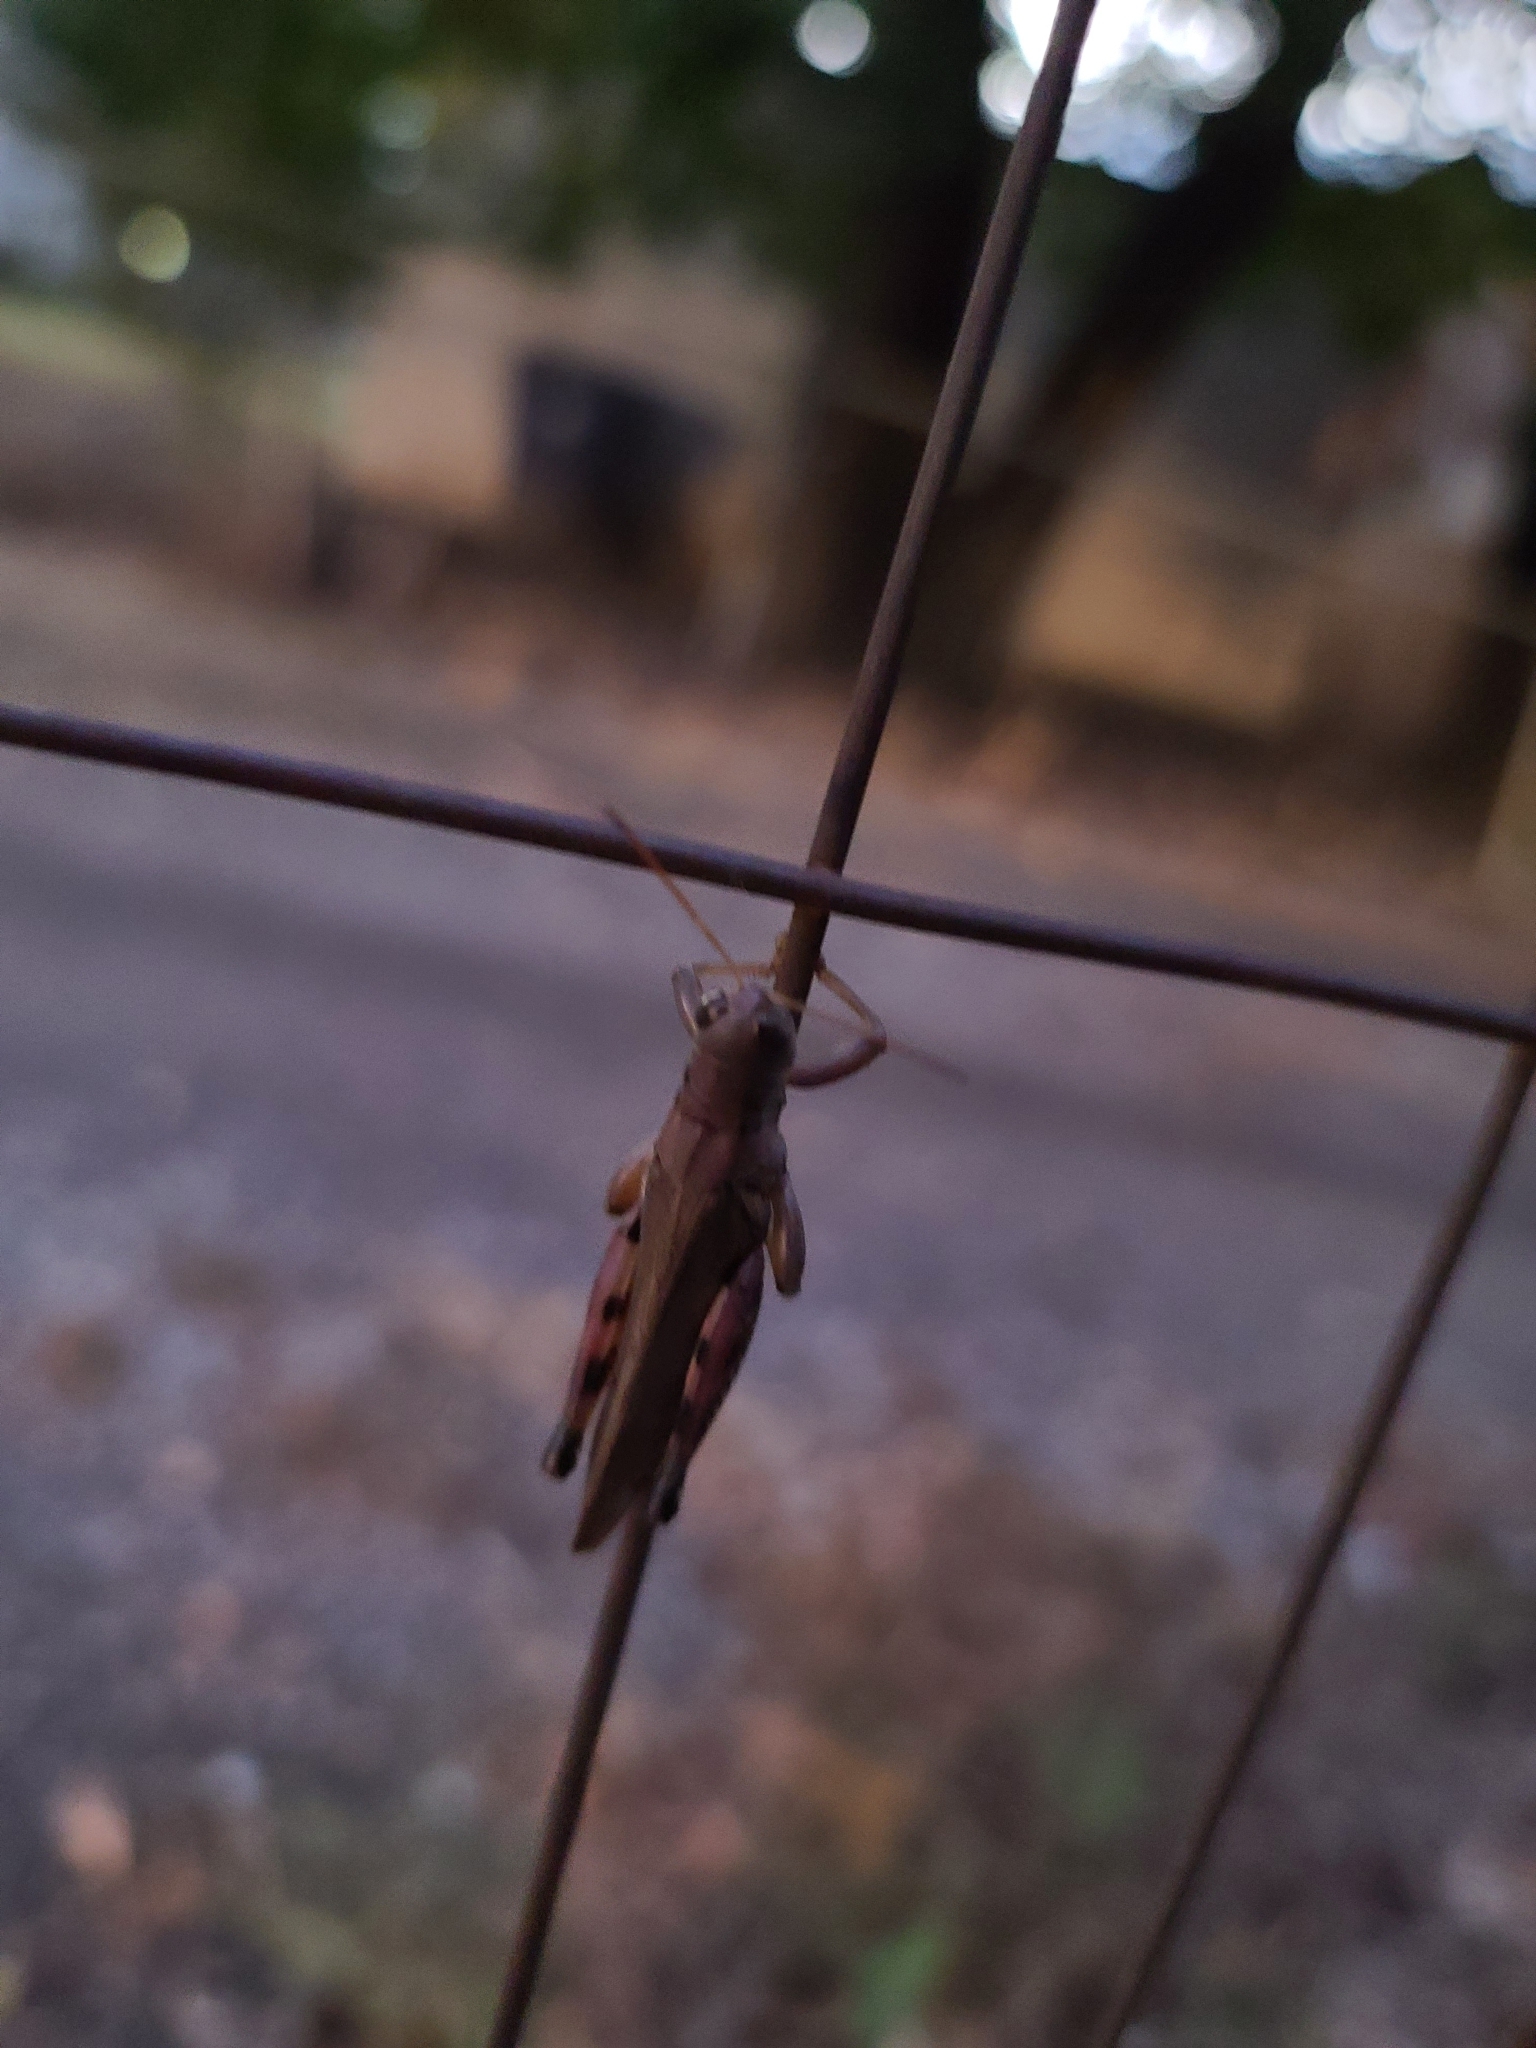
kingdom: Animalia
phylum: Arthropoda
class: Insecta
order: Orthoptera
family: Acrididae
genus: Melanoplus
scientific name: Melanoplus differentialis
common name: Differential grasshopper
